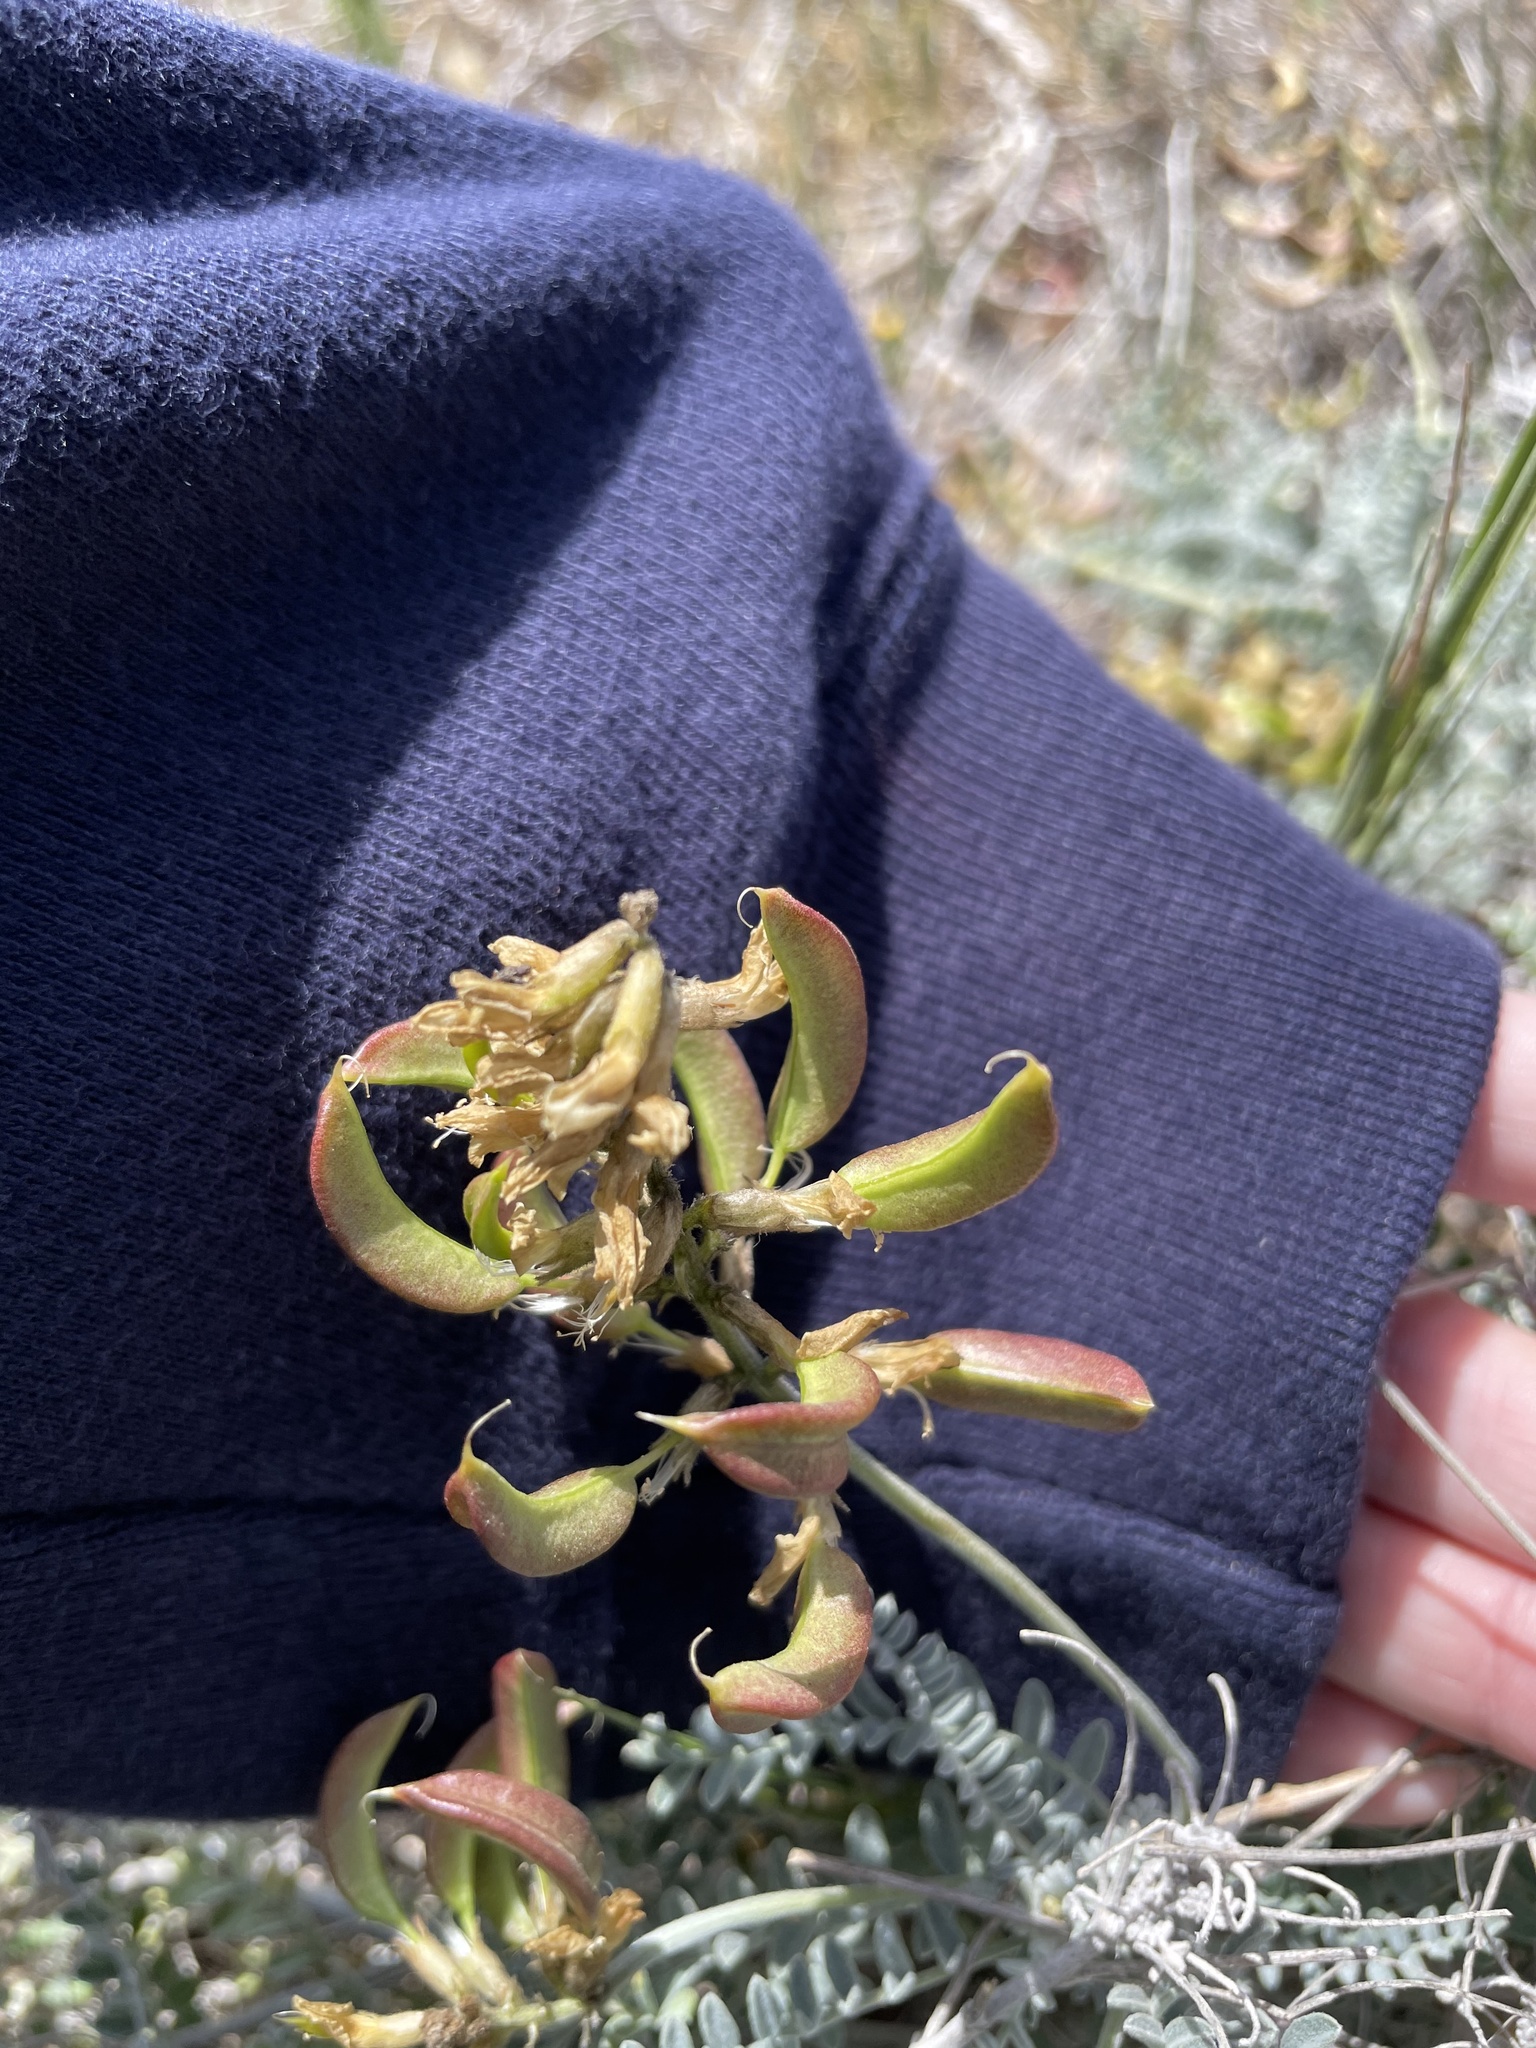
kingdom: Plantae
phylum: Tracheophyta
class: Magnoliopsida
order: Fabales
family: Fabaceae
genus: Astragalus
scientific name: Astragalus nevinii
